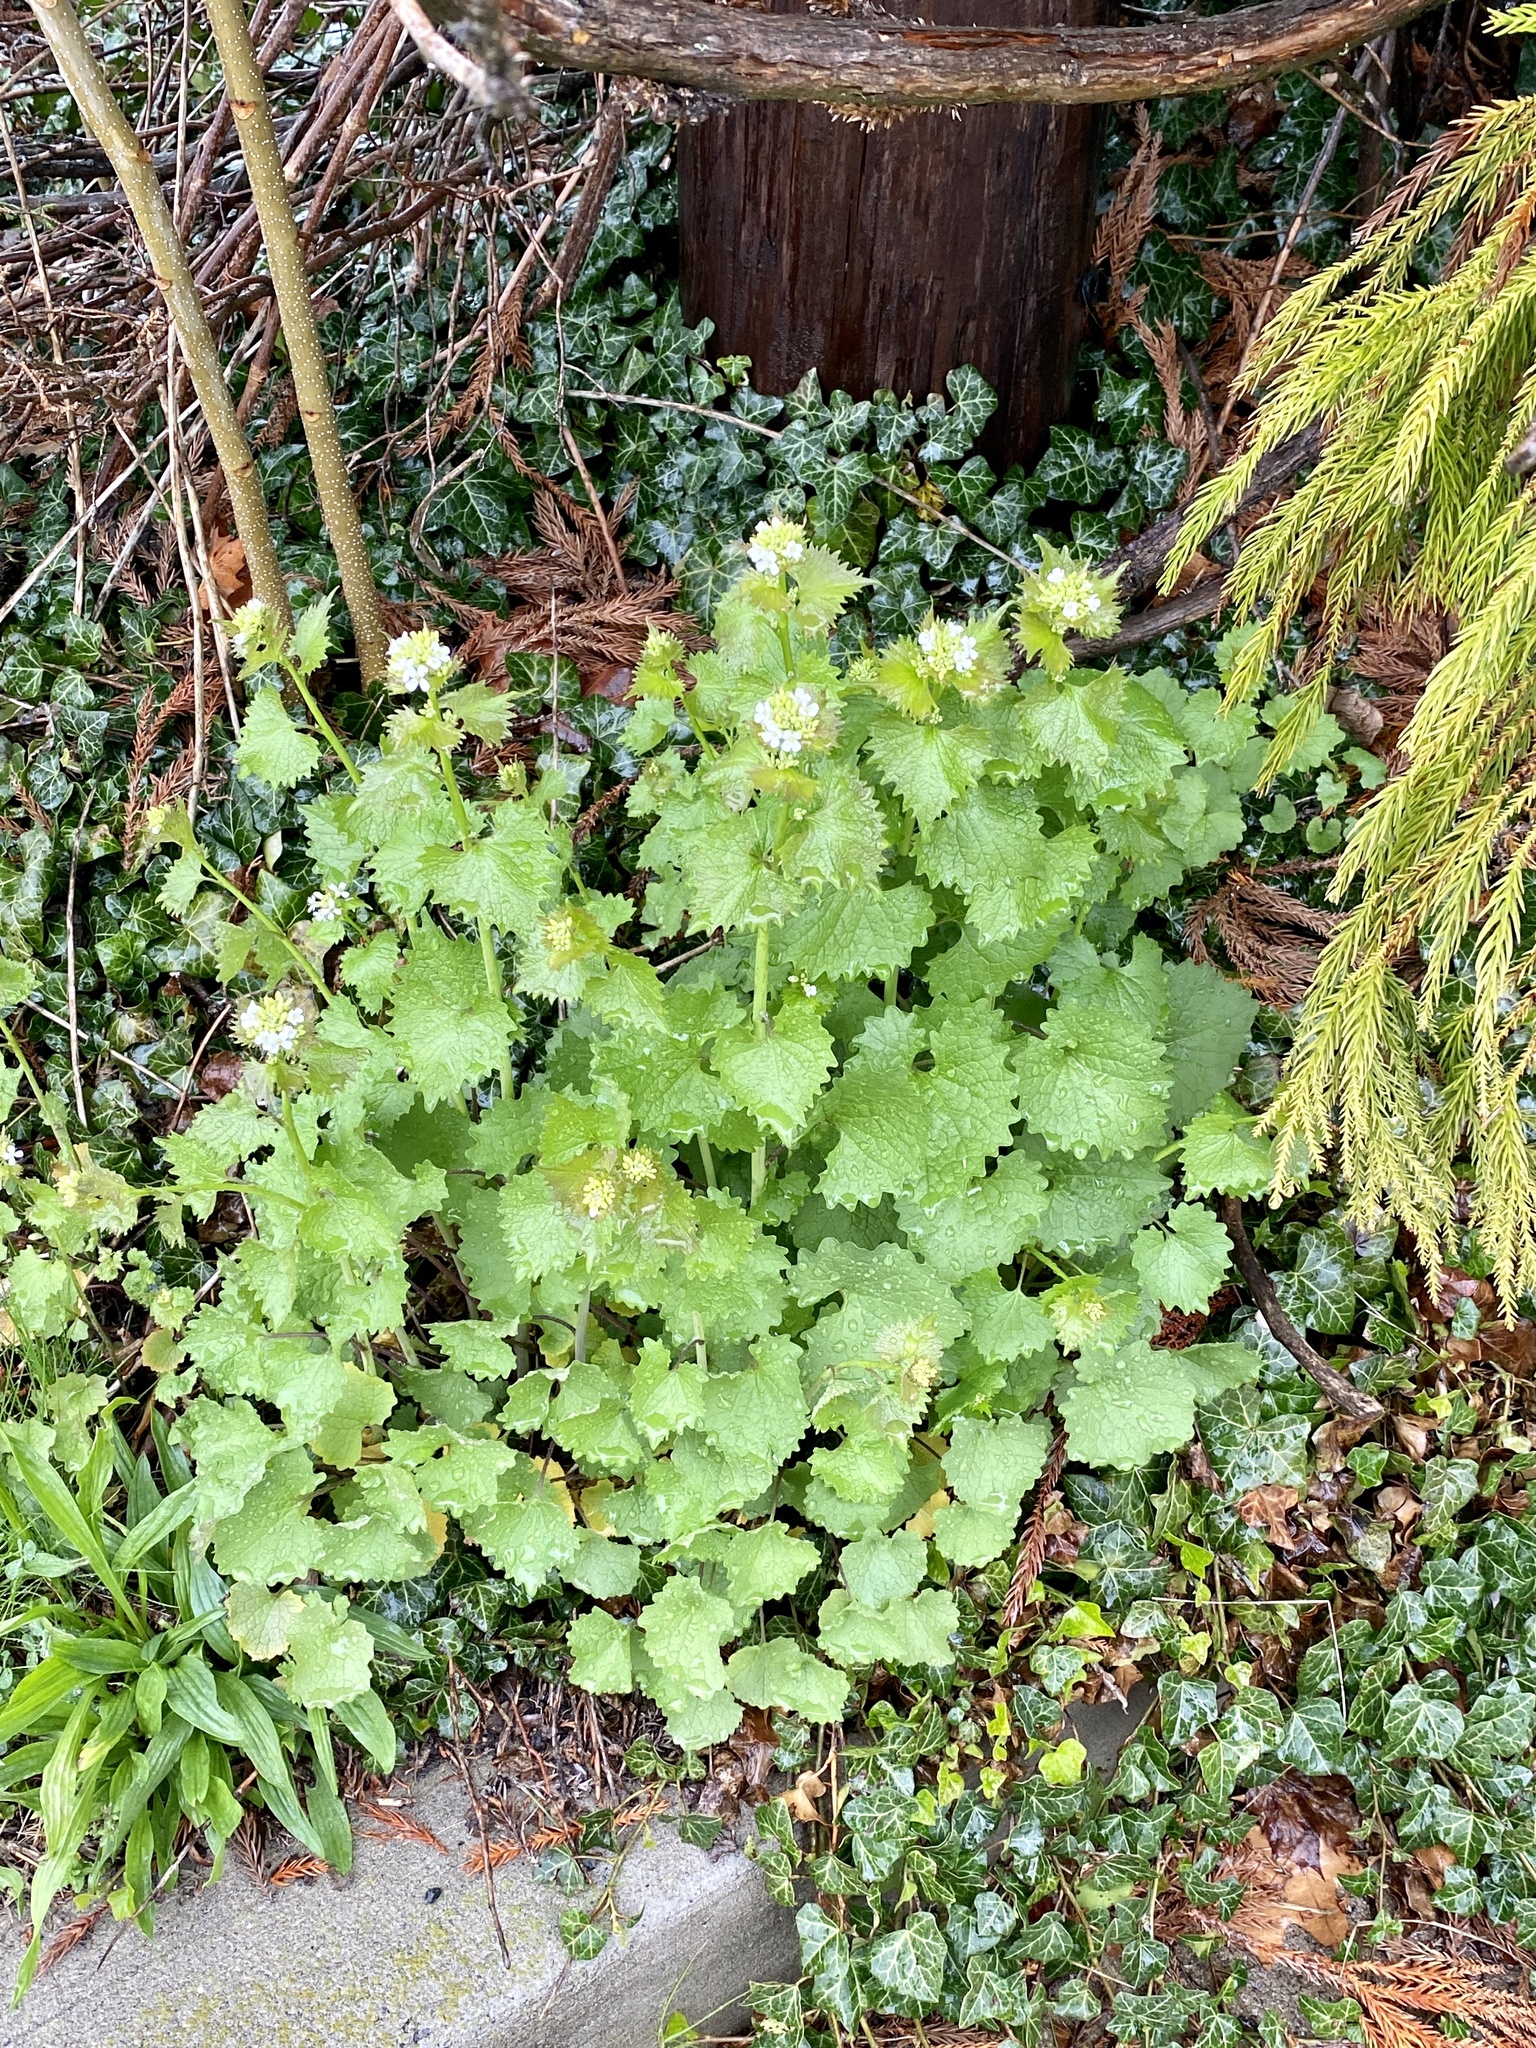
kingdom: Plantae
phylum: Tracheophyta
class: Magnoliopsida
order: Brassicales
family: Brassicaceae
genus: Alliaria
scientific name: Alliaria petiolata
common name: Garlic mustard
